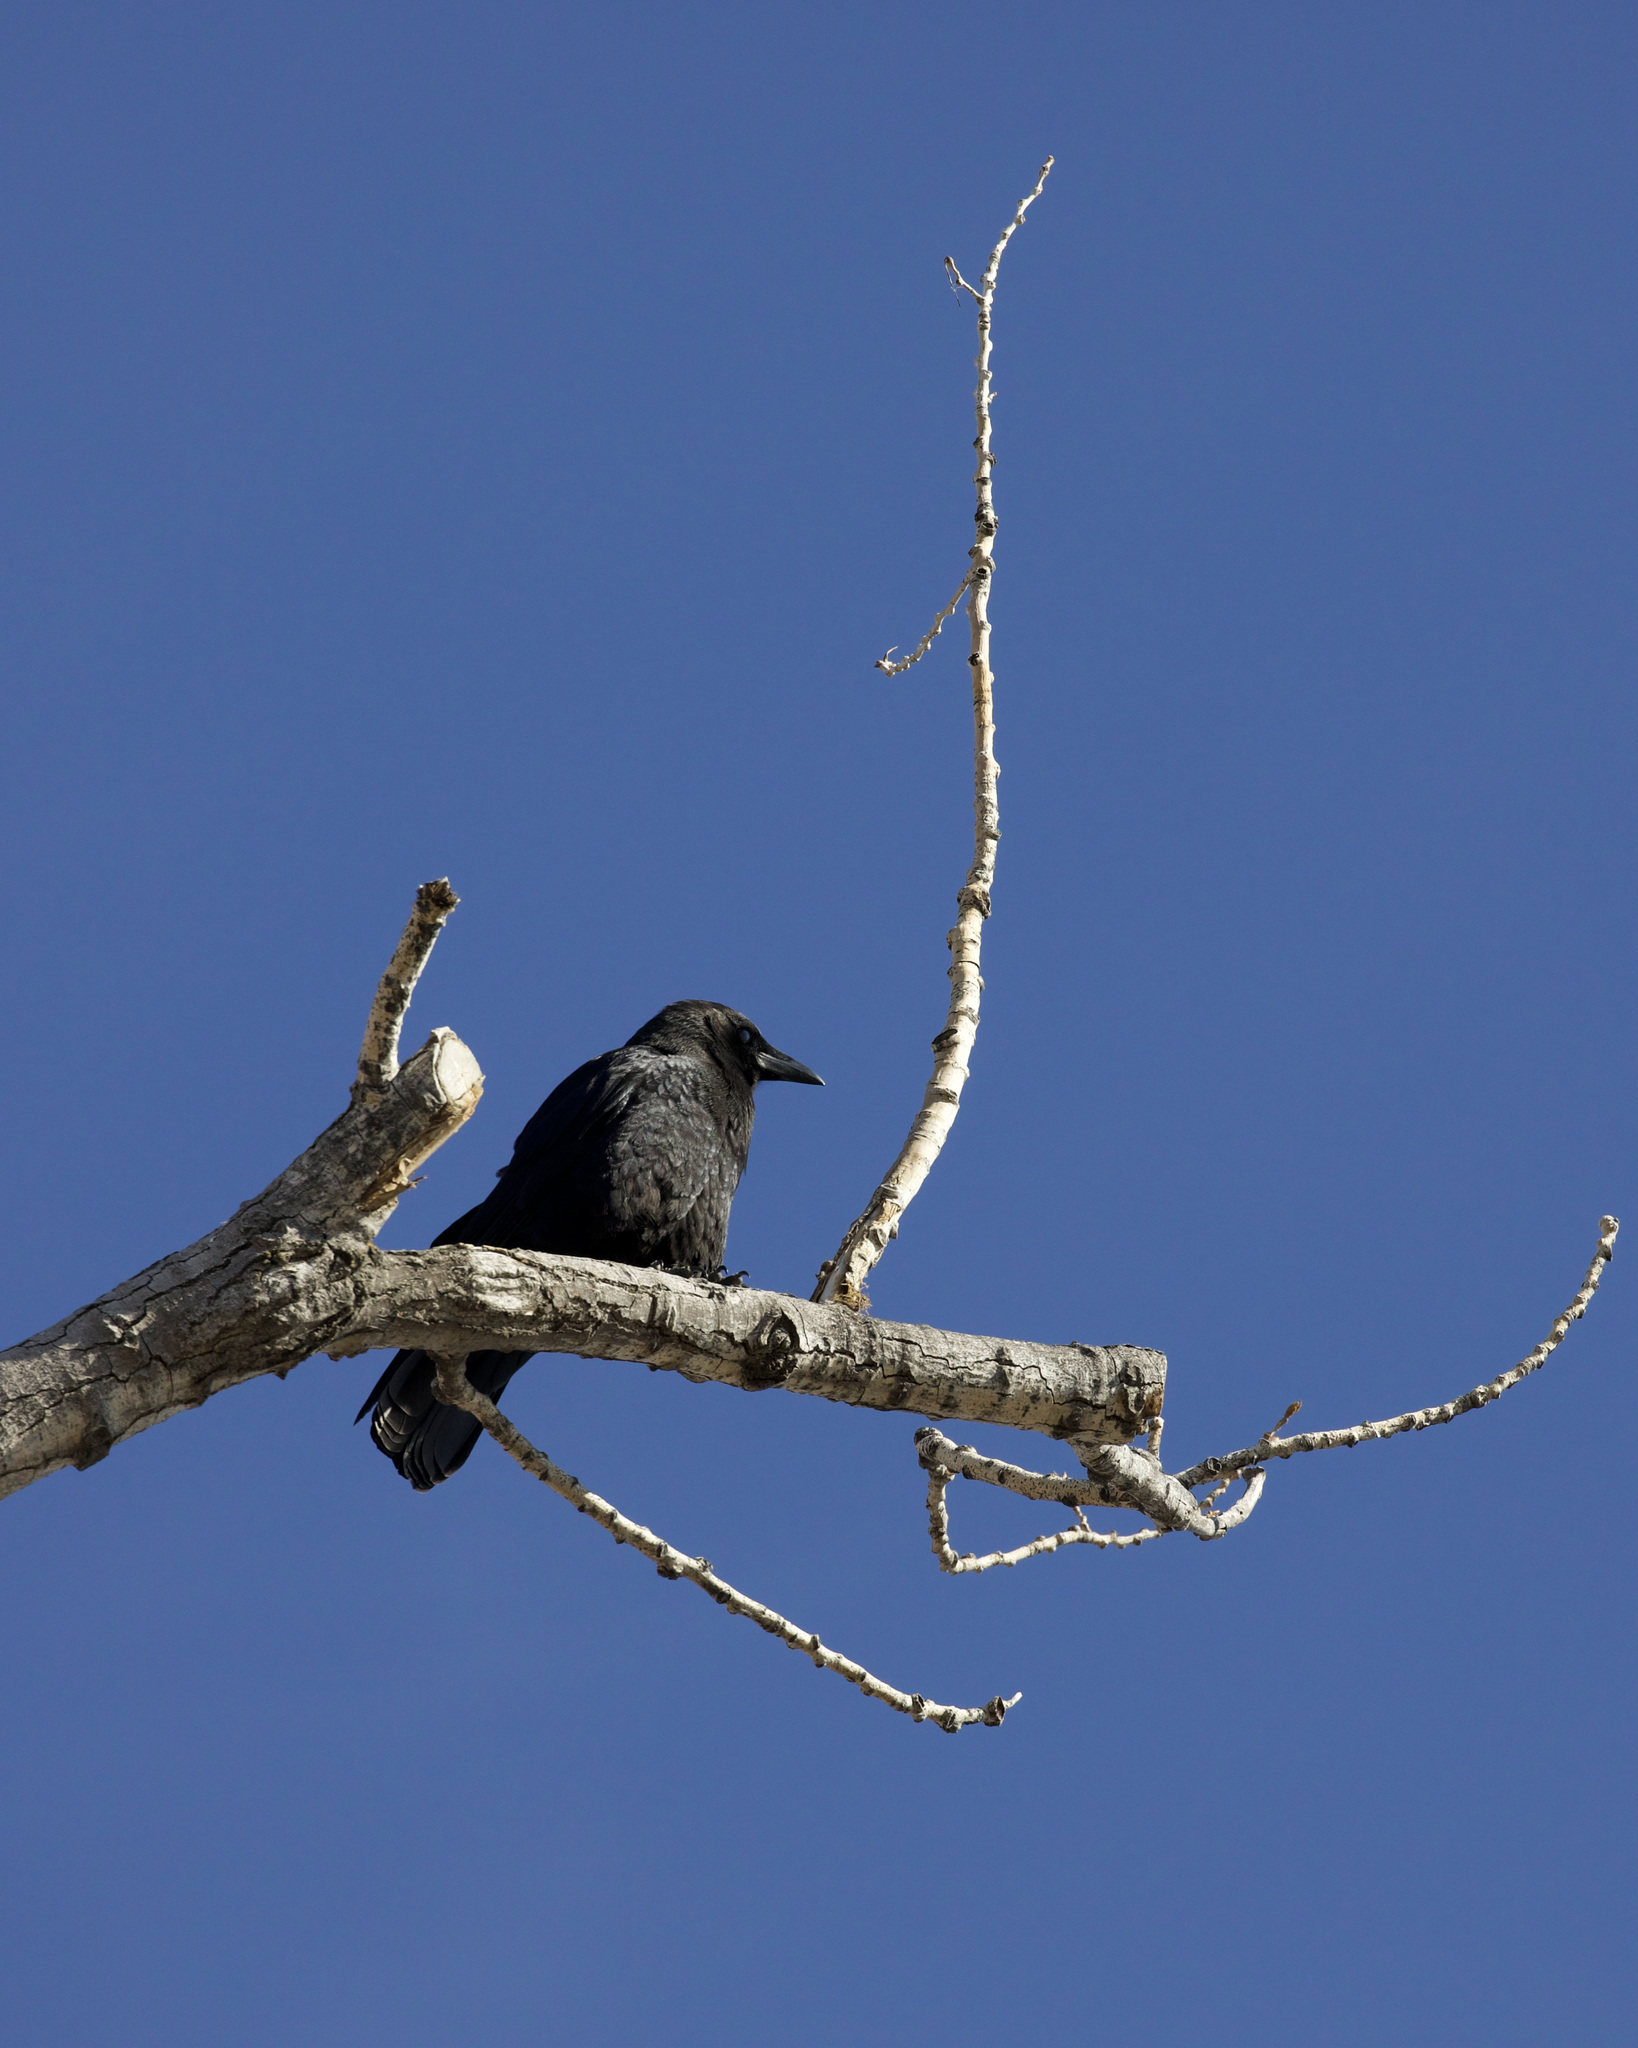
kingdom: Animalia
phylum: Chordata
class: Aves
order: Passeriformes
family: Corvidae
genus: Corvus
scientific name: Corvus brachyrhynchos
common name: American crow
